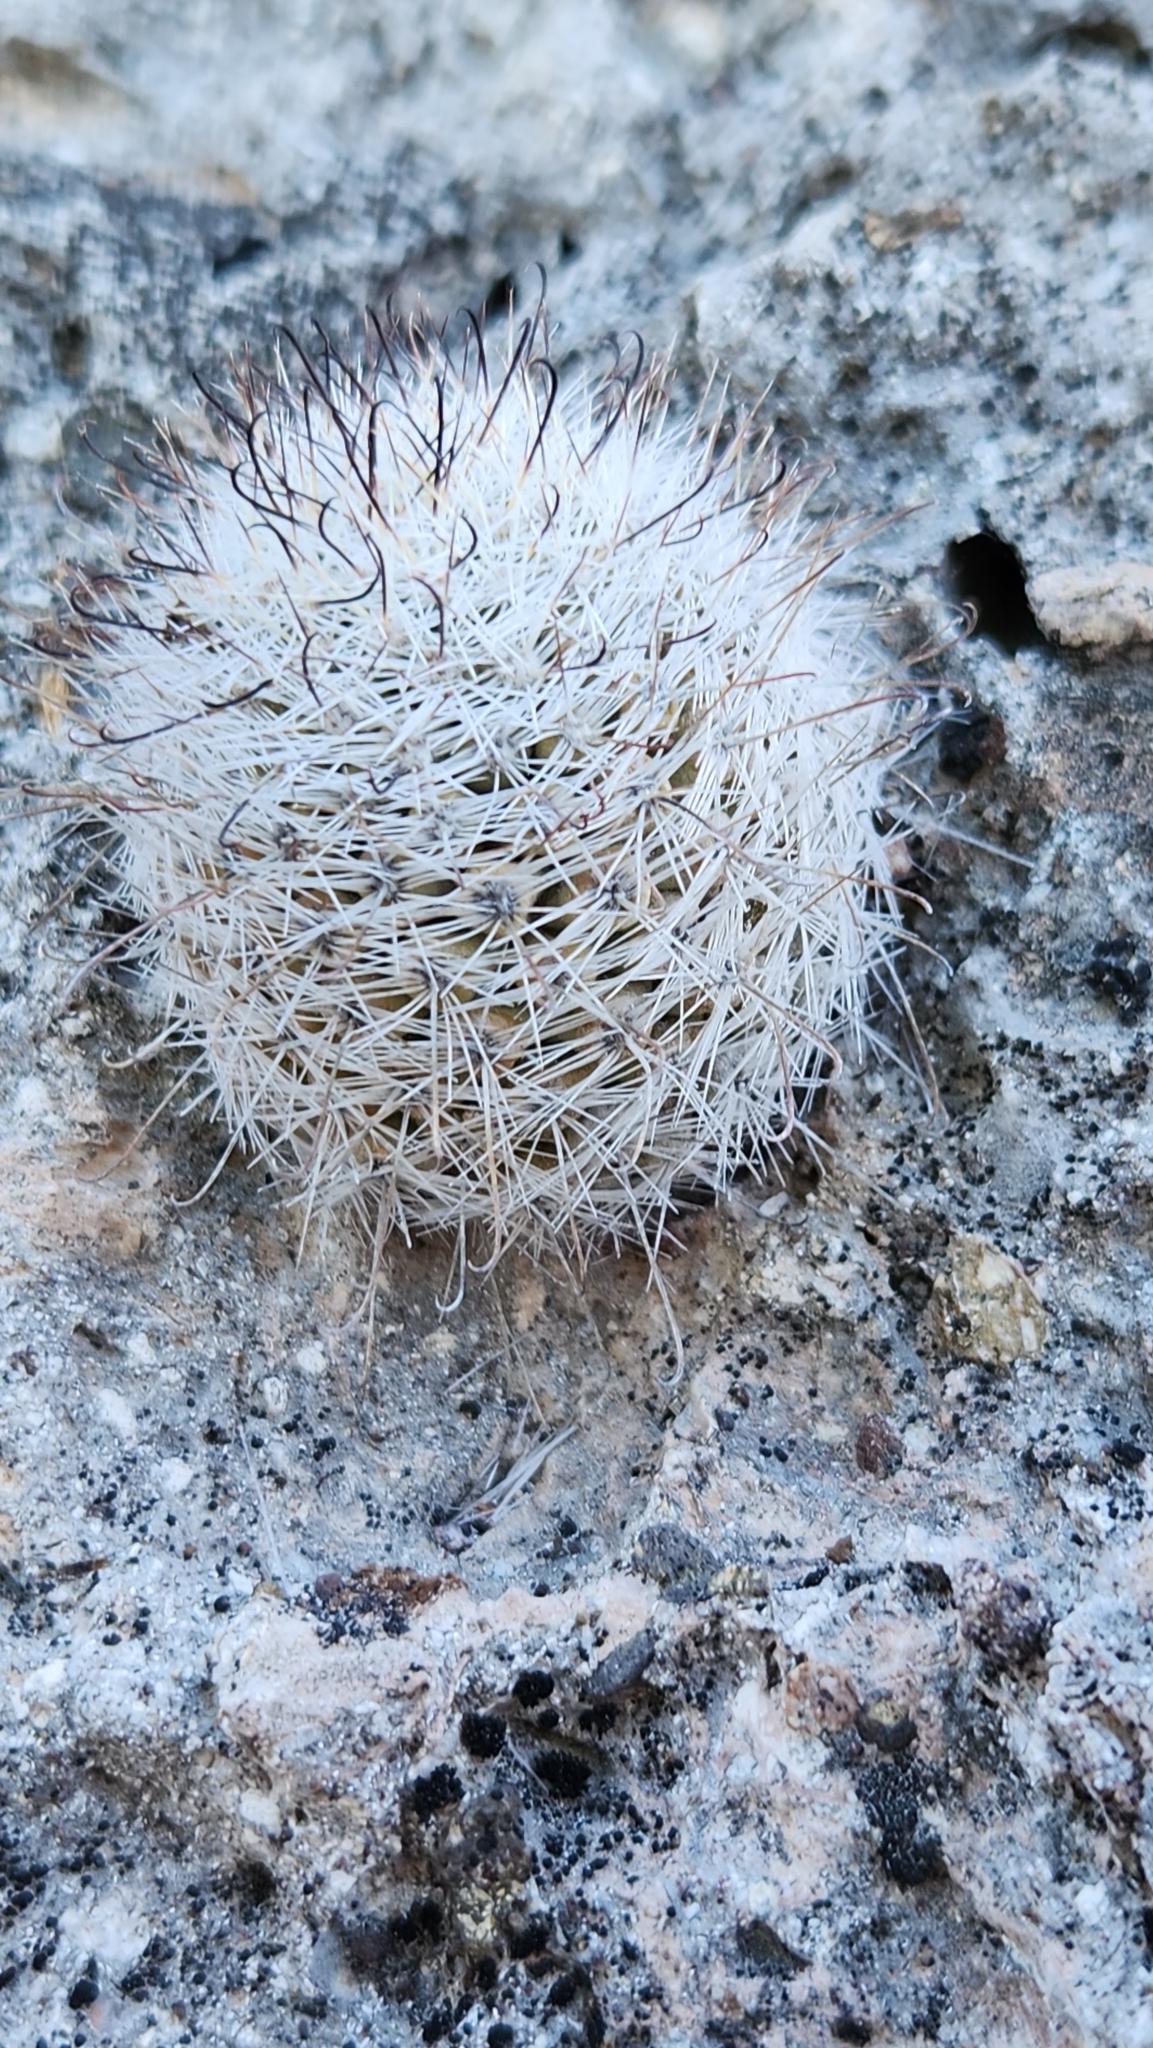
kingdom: Plantae
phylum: Tracheophyta
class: Magnoliopsida
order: Caryophyllales
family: Cactaceae
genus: Cochemiea
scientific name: Cochemiea dioica
